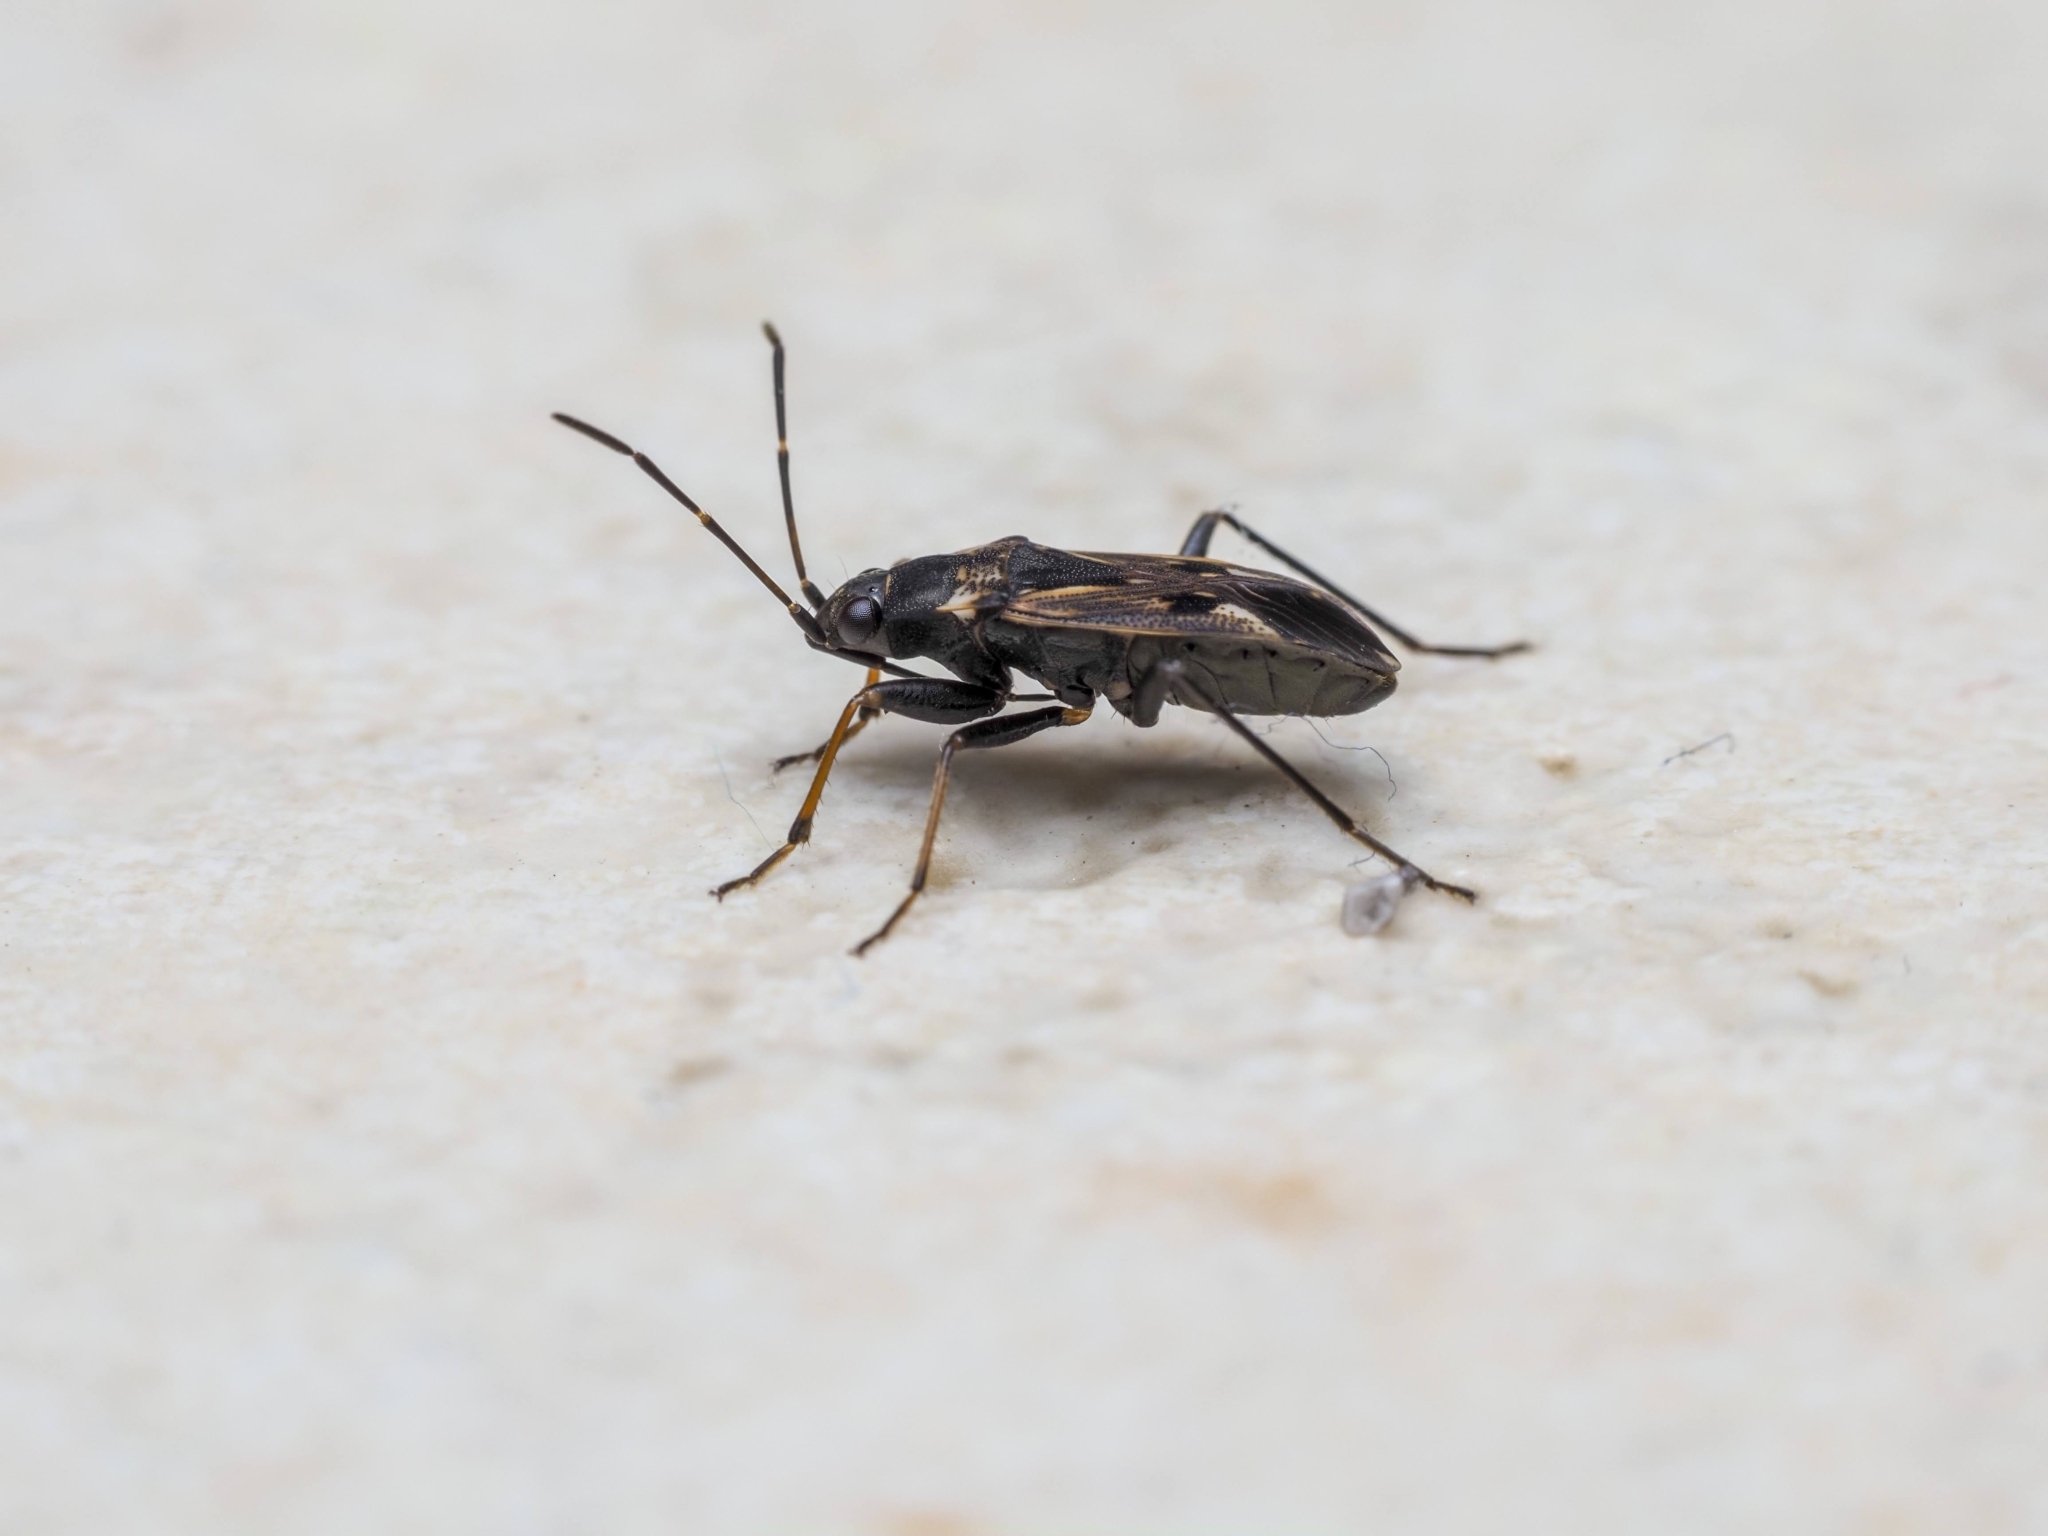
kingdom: Animalia
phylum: Arthropoda
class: Insecta
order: Hemiptera
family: Rhyparochromidae
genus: Rhyparochromus
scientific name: Rhyparochromus vulgaris
